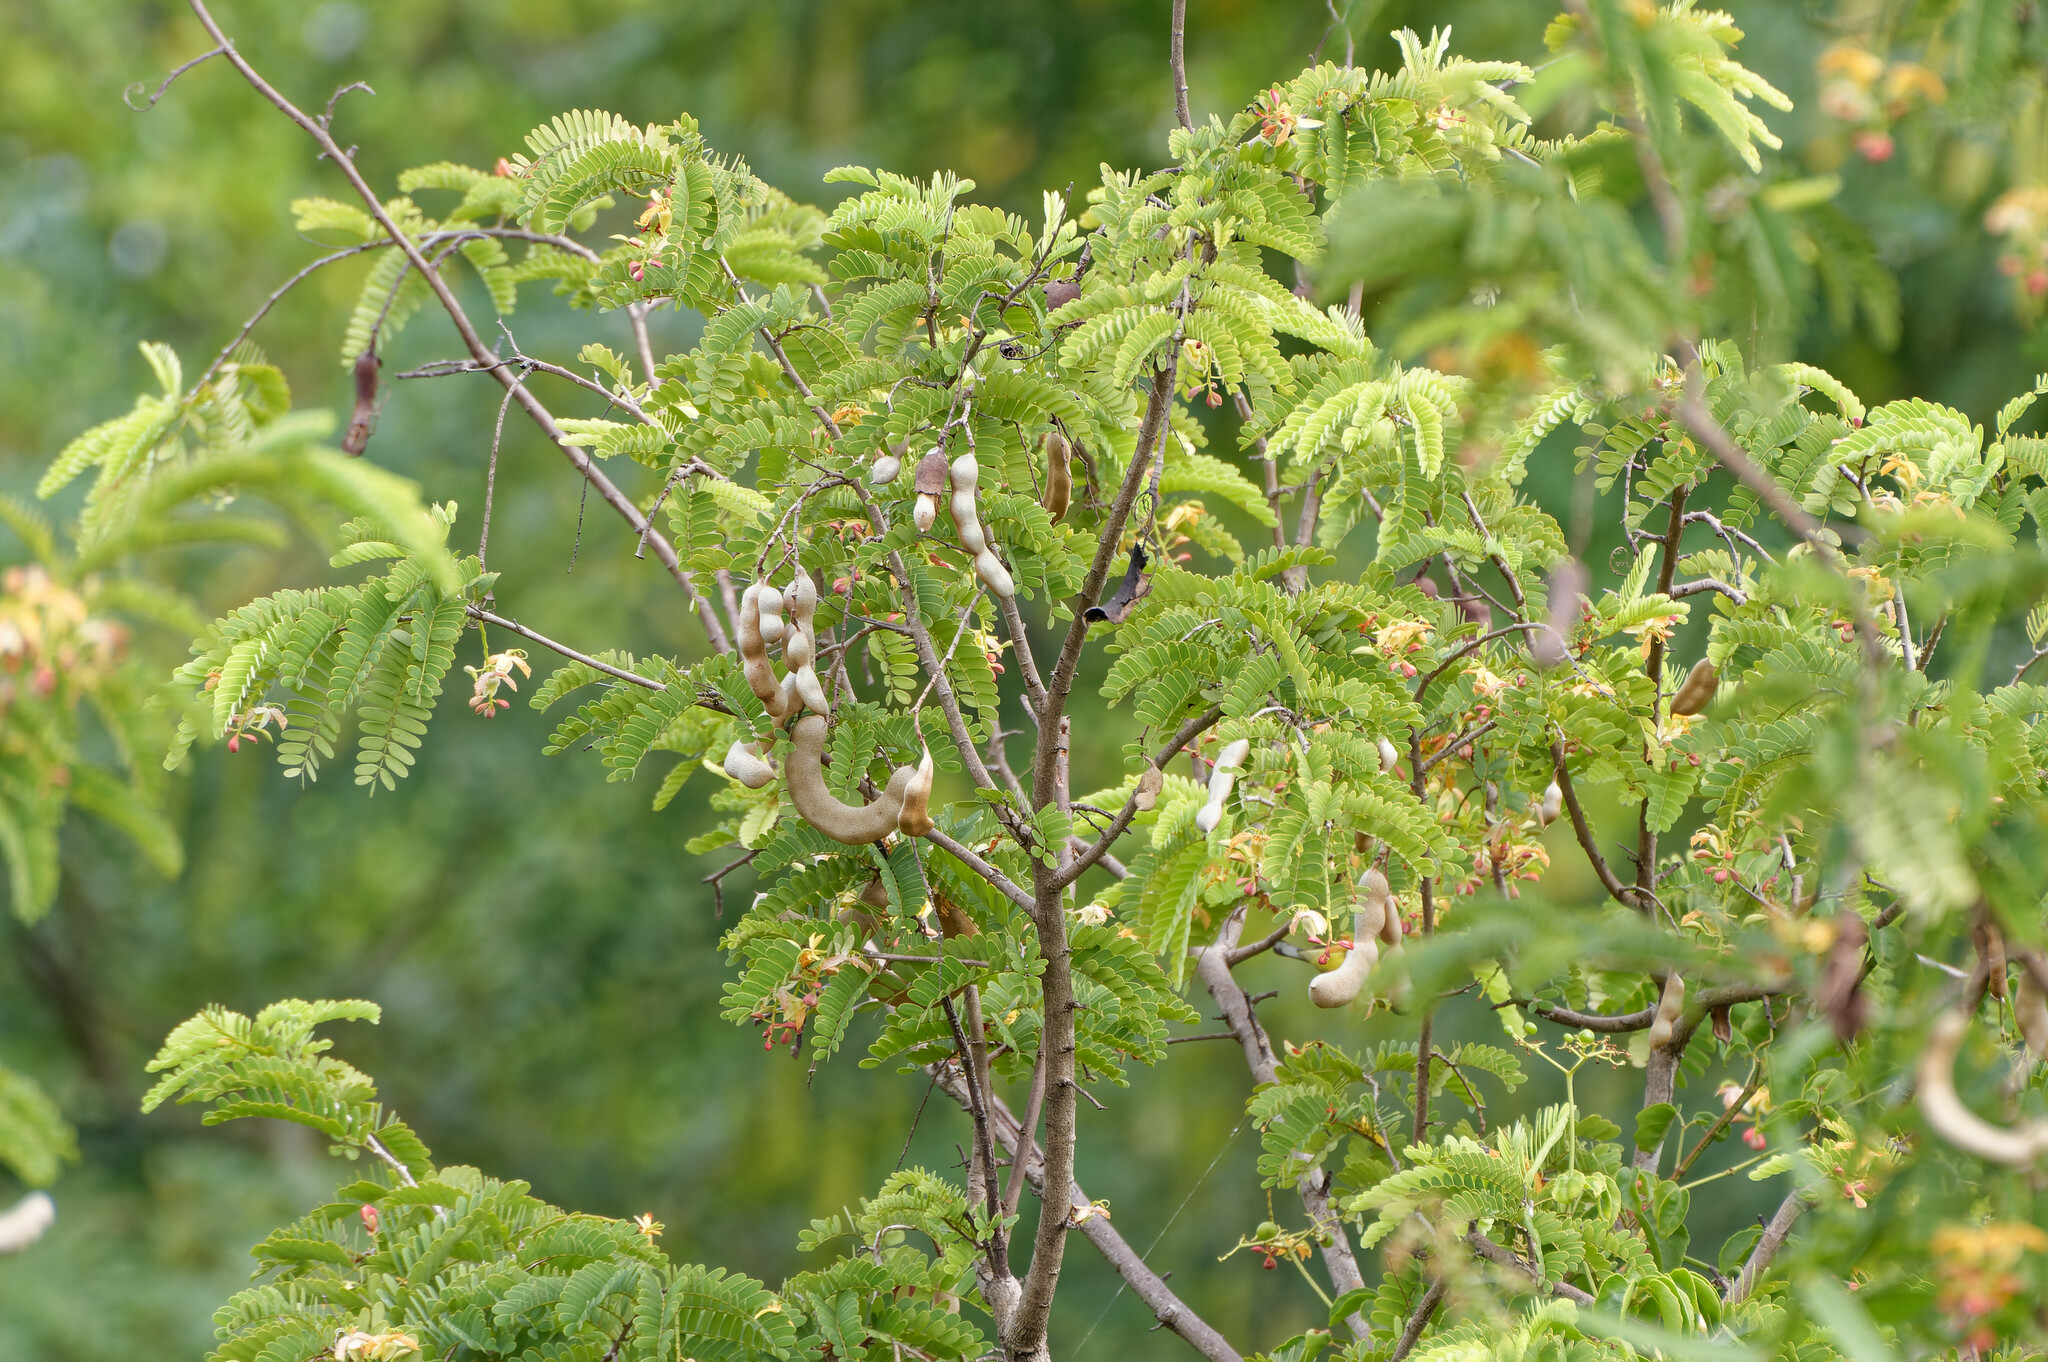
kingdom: Plantae
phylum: Tracheophyta
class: Magnoliopsida
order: Fabales
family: Fabaceae
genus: Tamarindus
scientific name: Tamarindus indica
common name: Tamarind
